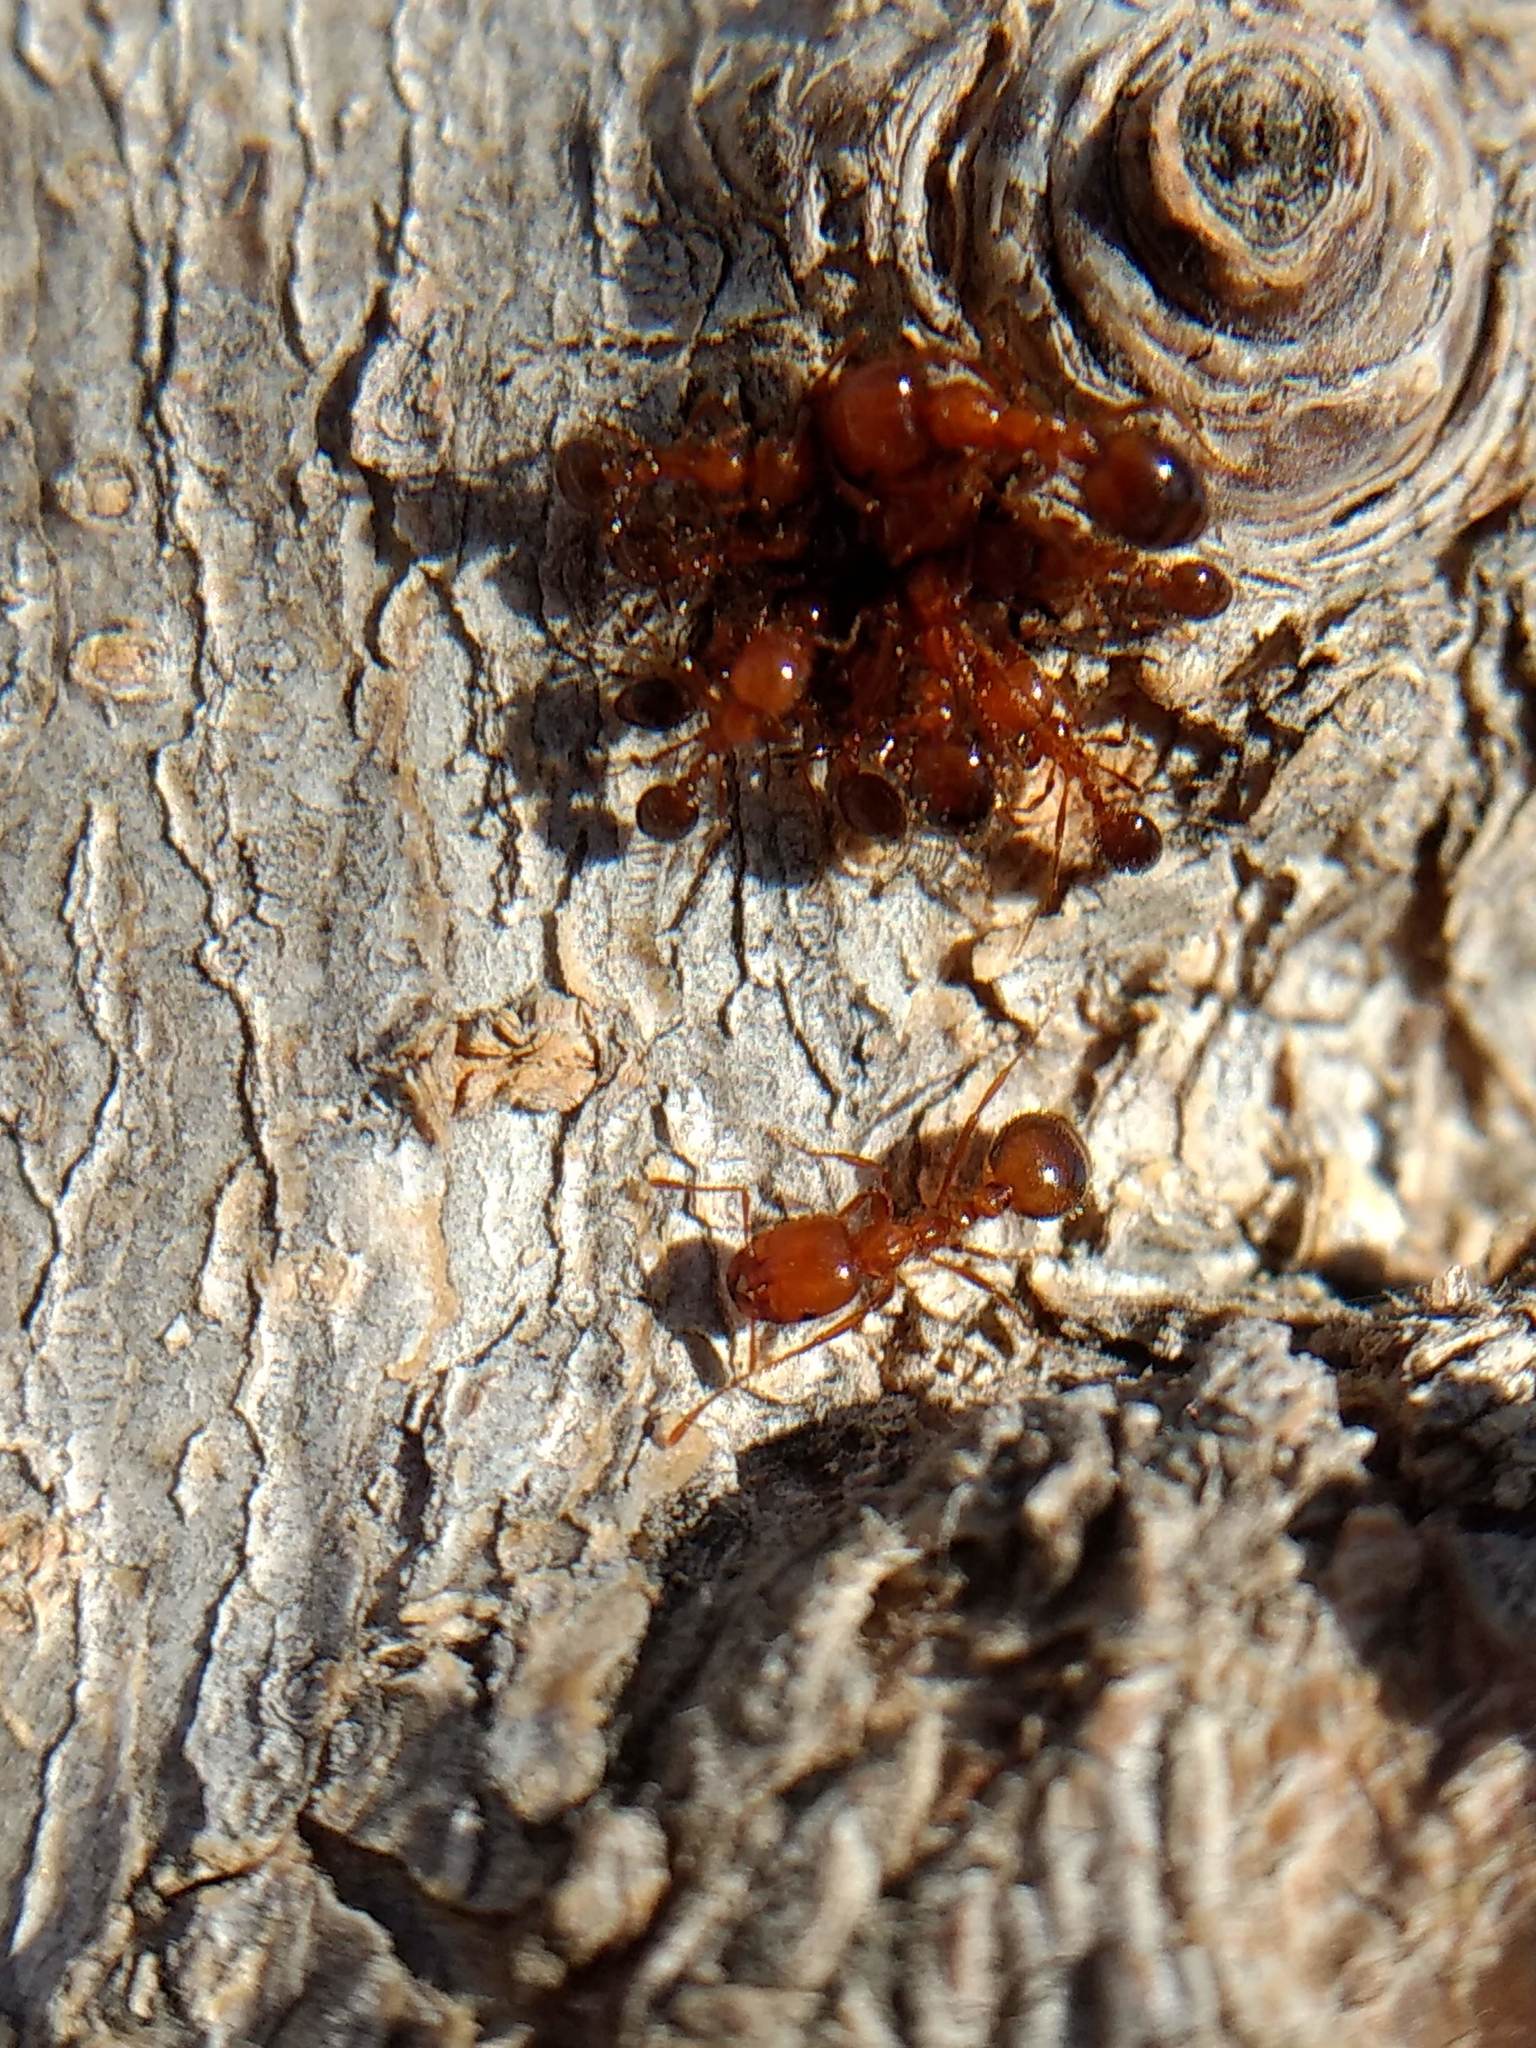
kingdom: Animalia
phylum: Arthropoda
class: Insecta
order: Hymenoptera
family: Formicidae
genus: Solenopsis
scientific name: Solenopsis xyloni
